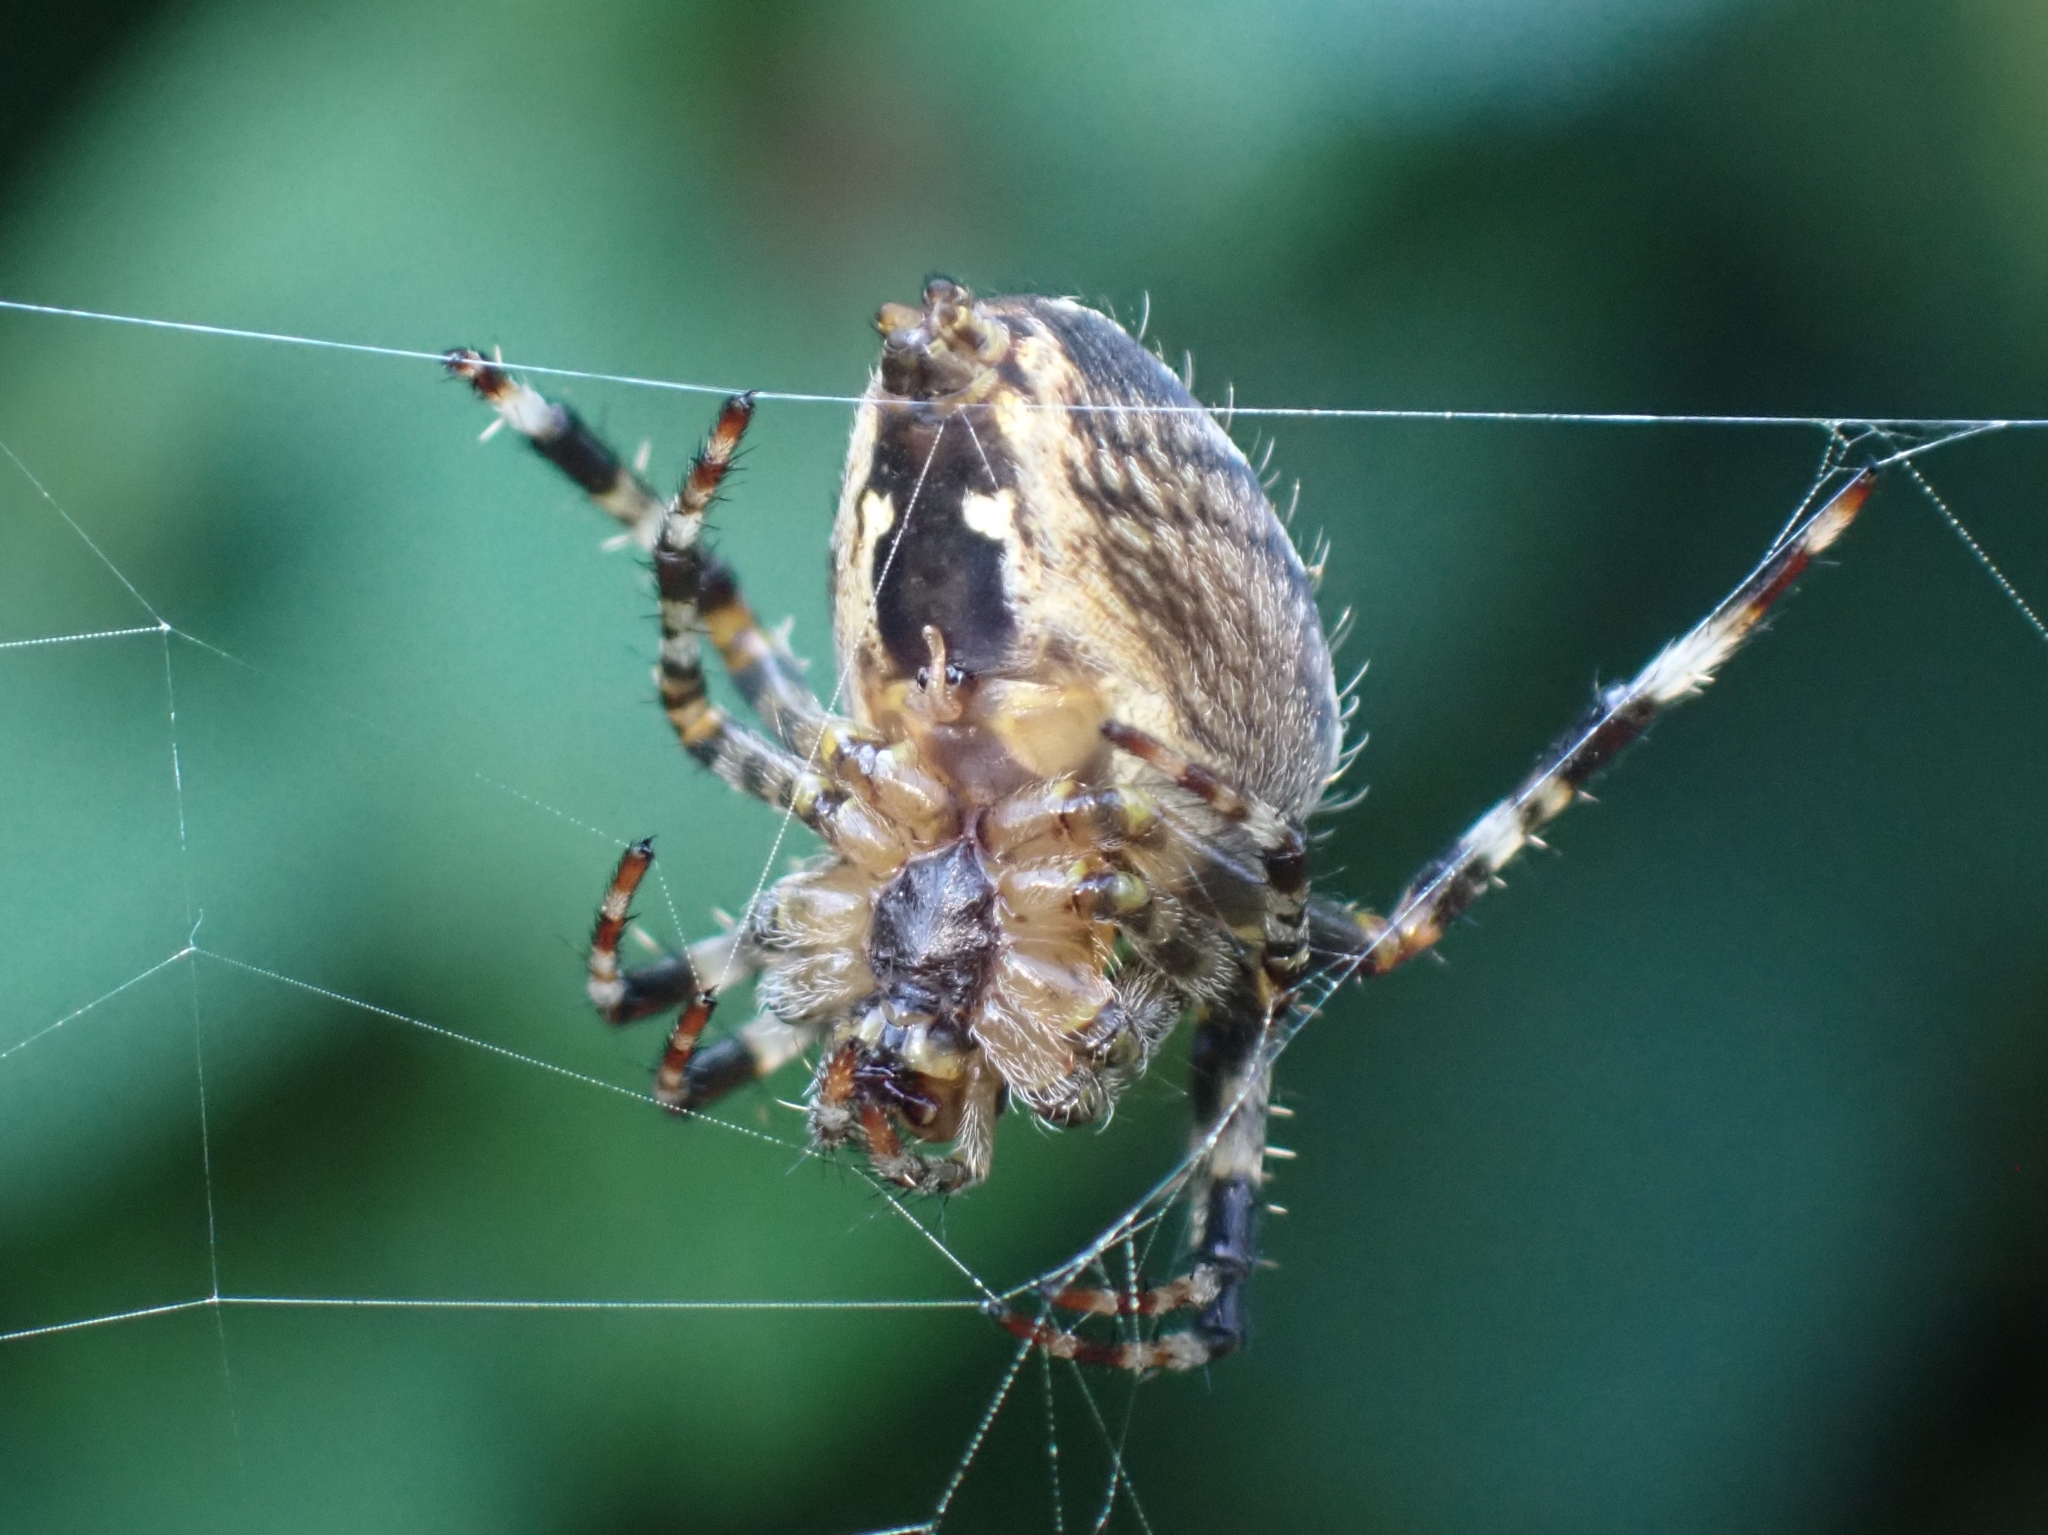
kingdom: Animalia
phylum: Arthropoda
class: Arachnida
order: Araneae
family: Araneidae
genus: Araneus
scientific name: Araneus diadematus
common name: Cross orbweaver
